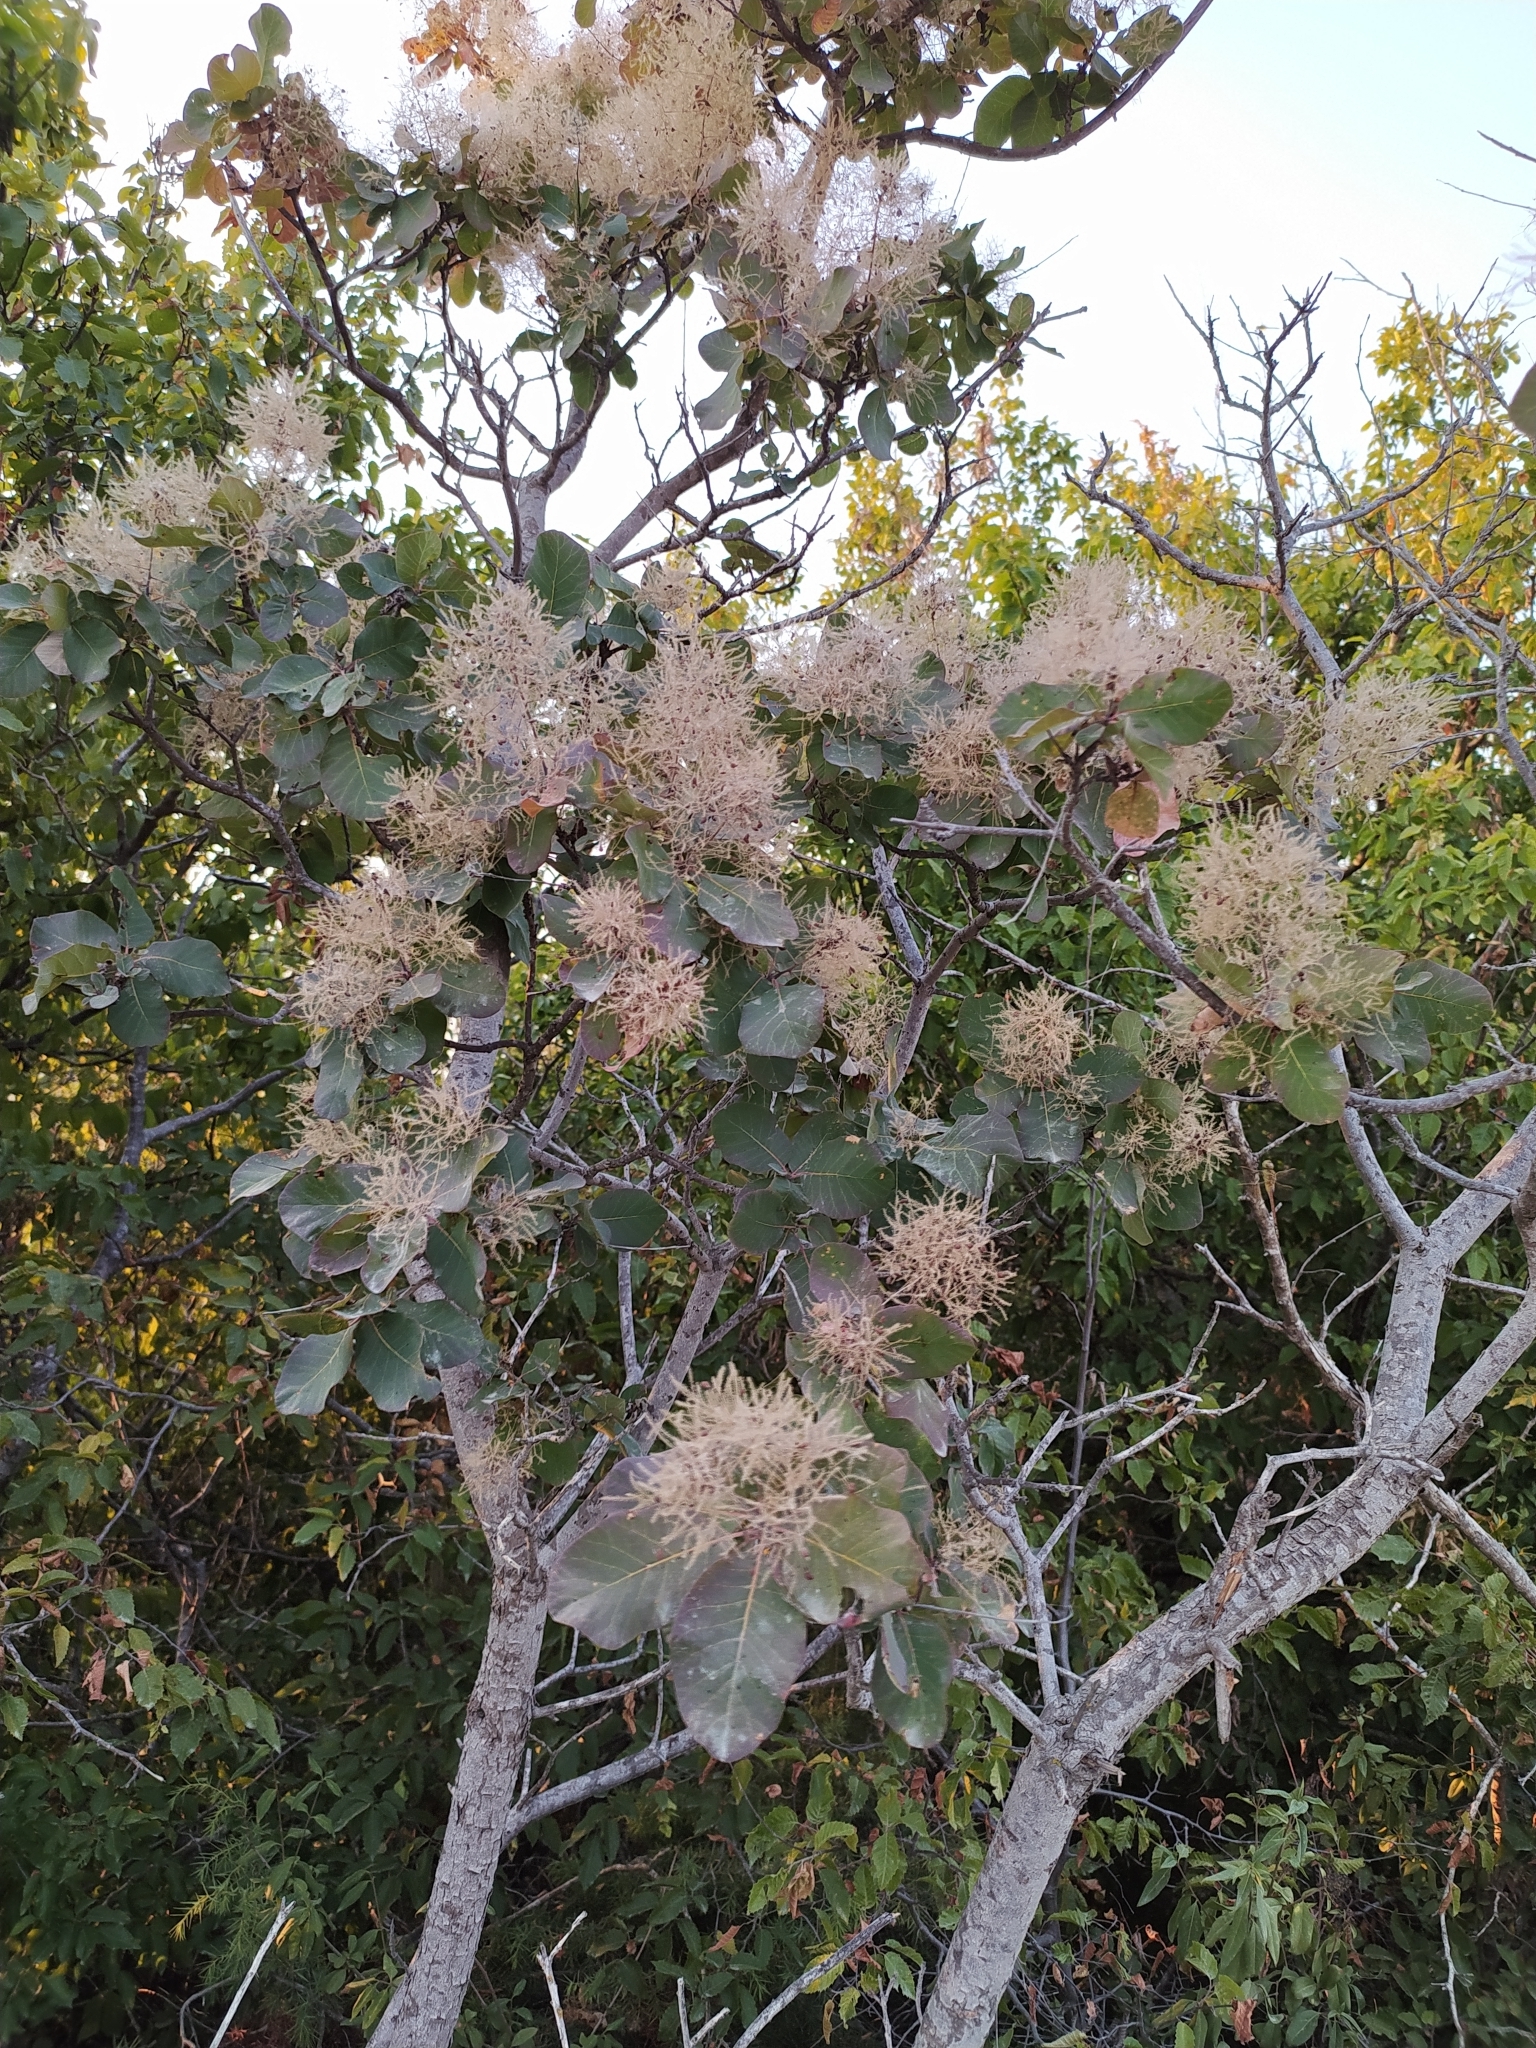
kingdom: Plantae
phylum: Tracheophyta
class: Magnoliopsida
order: Sapindales
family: Anacardiaceae
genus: Cotinus
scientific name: Cotinus coggygria
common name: Smoke-tree
